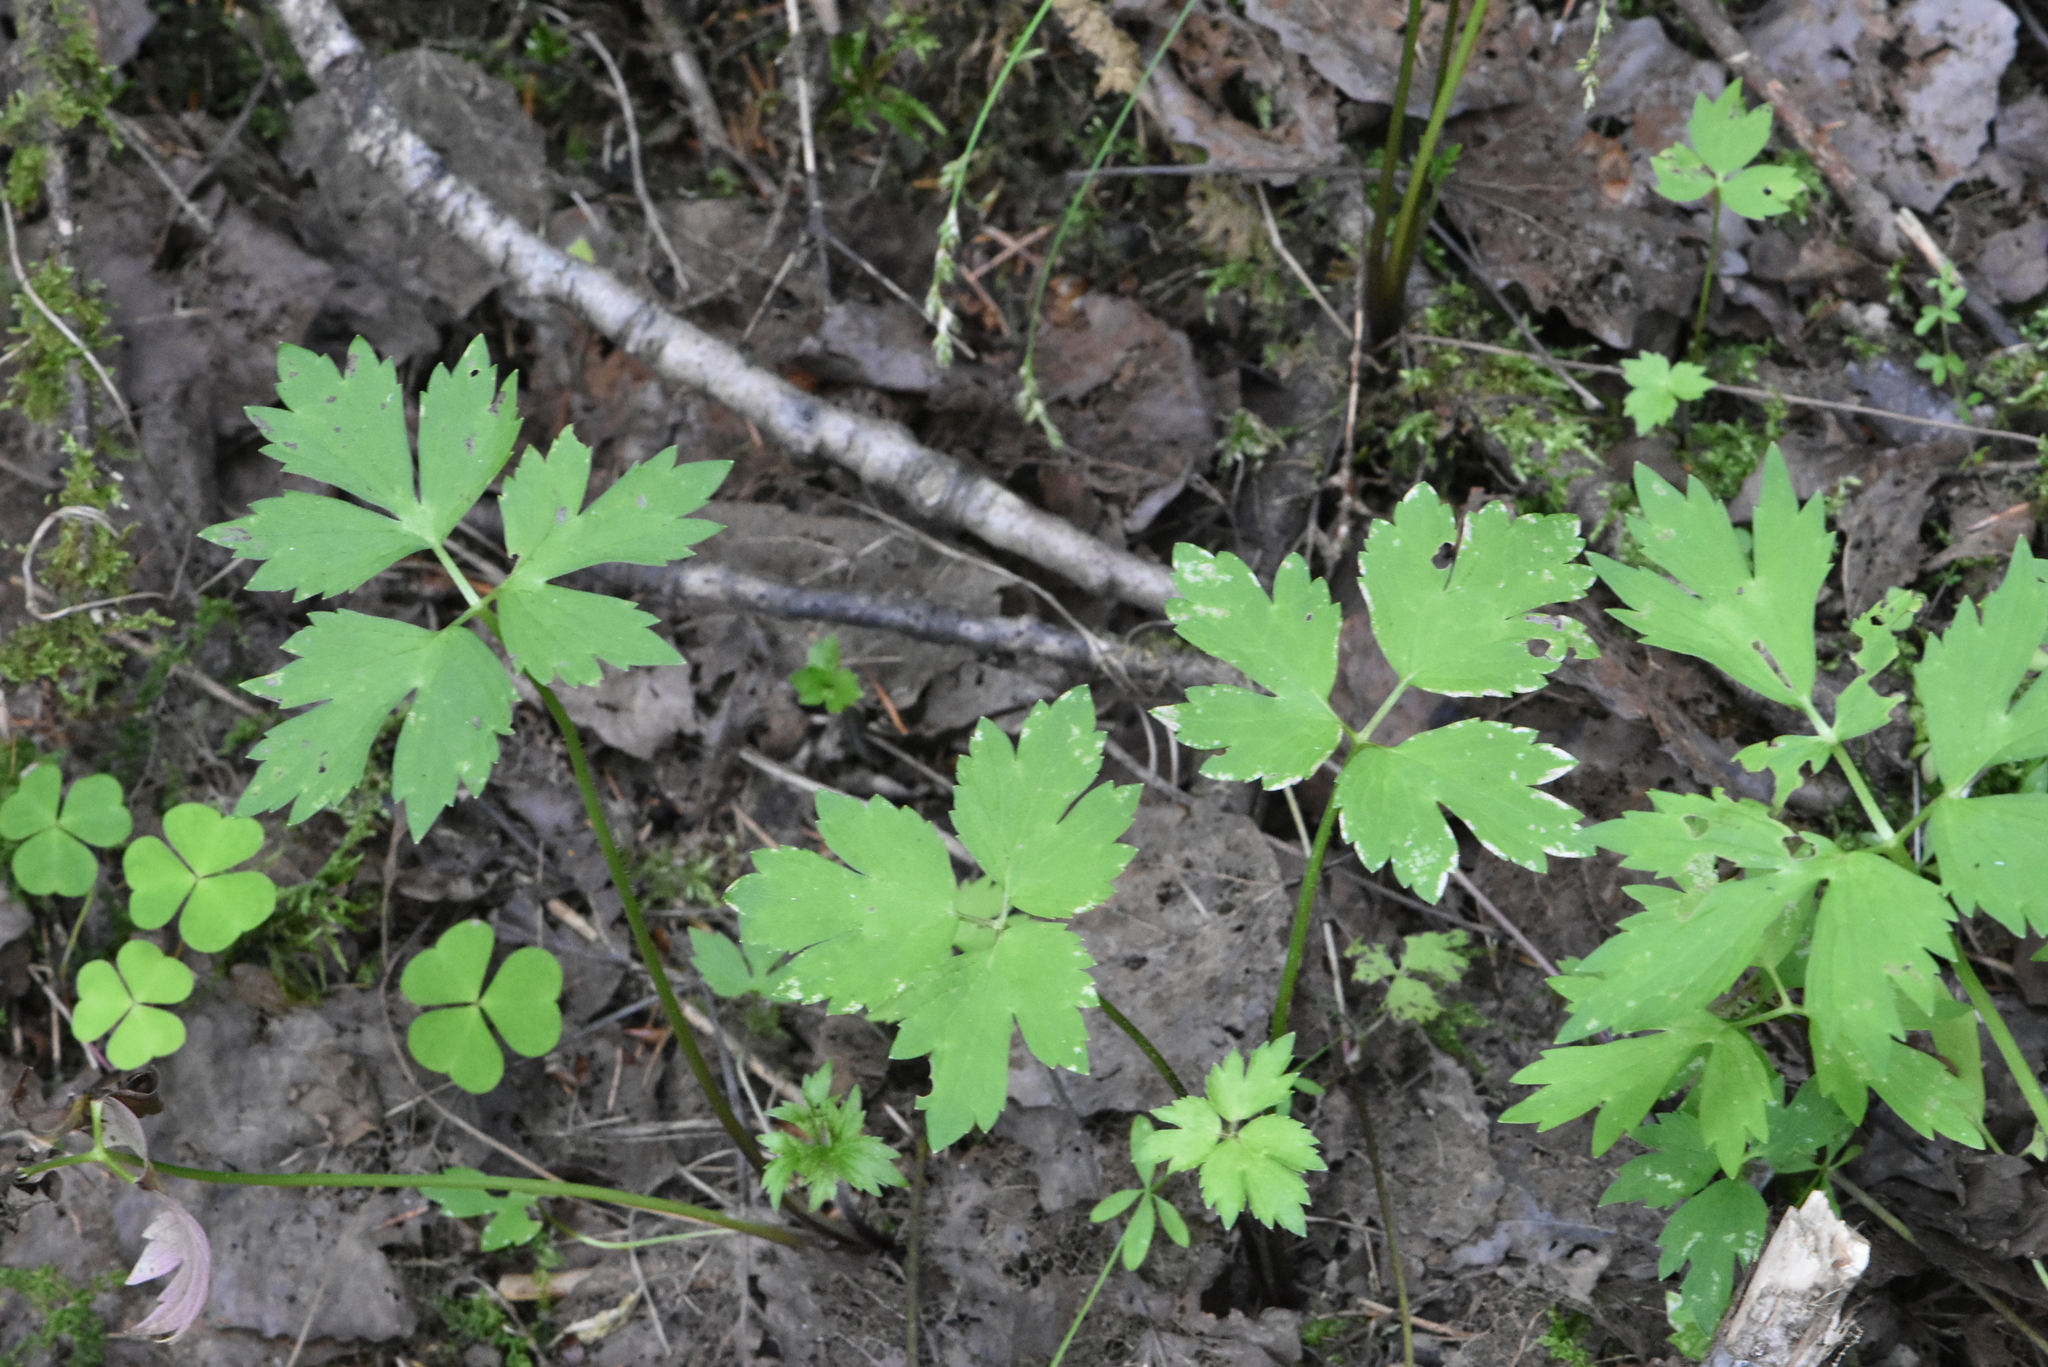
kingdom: Plantae
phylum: Tracheophyta
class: Magnoliopsida
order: Ranunculales
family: Ranunculaceae
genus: Ranunculus
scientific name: Ranunculus repens
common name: Creeping buttercup
